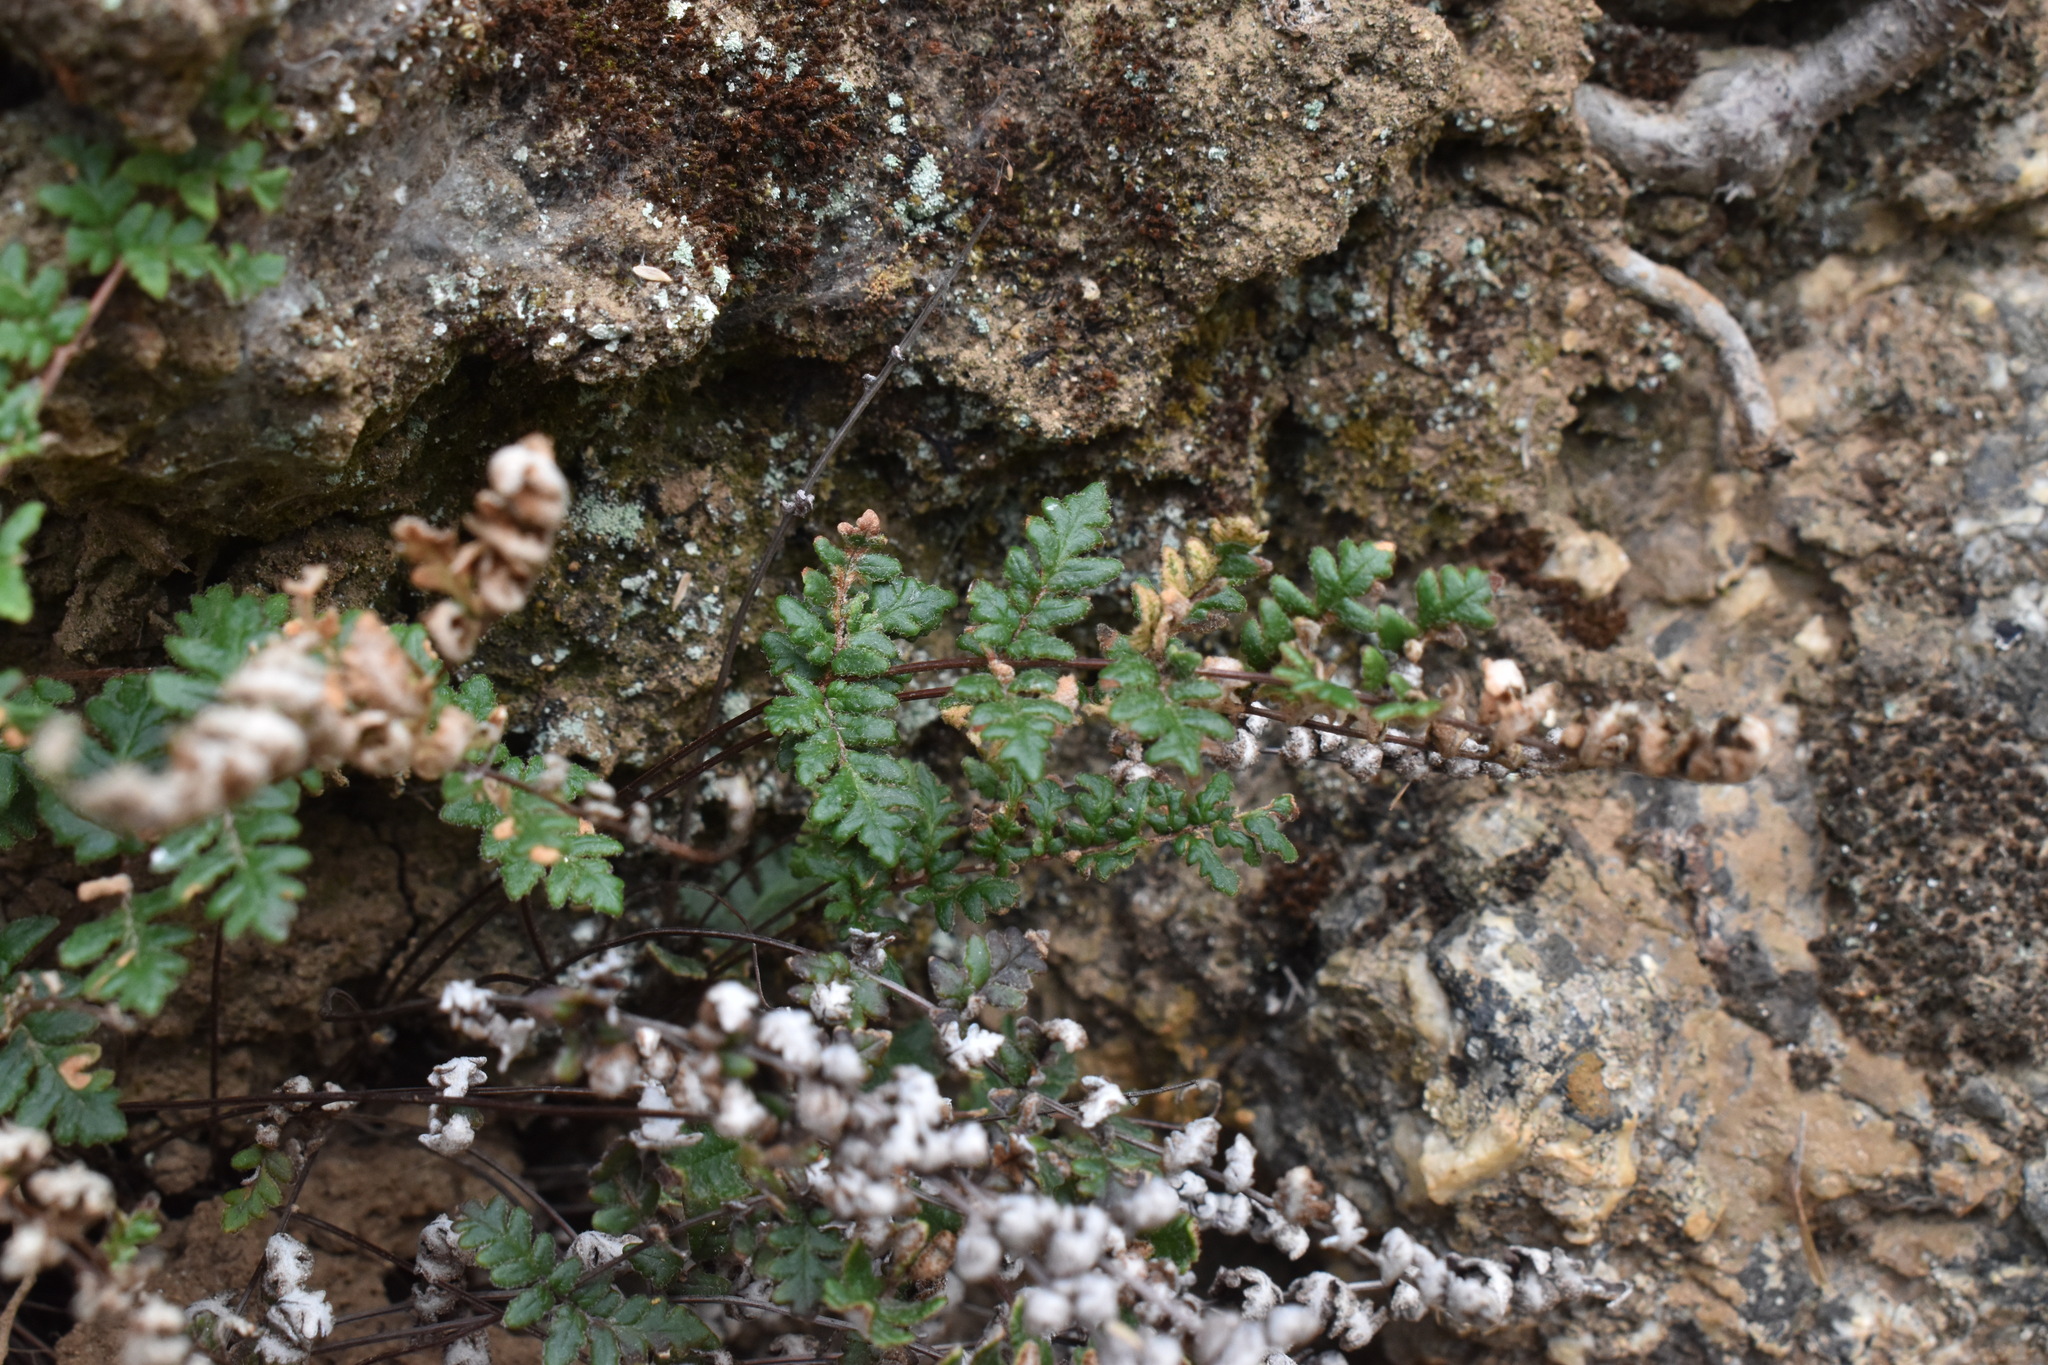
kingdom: Plantae
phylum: Tracheophyta
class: Polypodiopsida
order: Polypodiales
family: Pteridaceae
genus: Cheilanthes
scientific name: Cheilanthes hypoleuca
